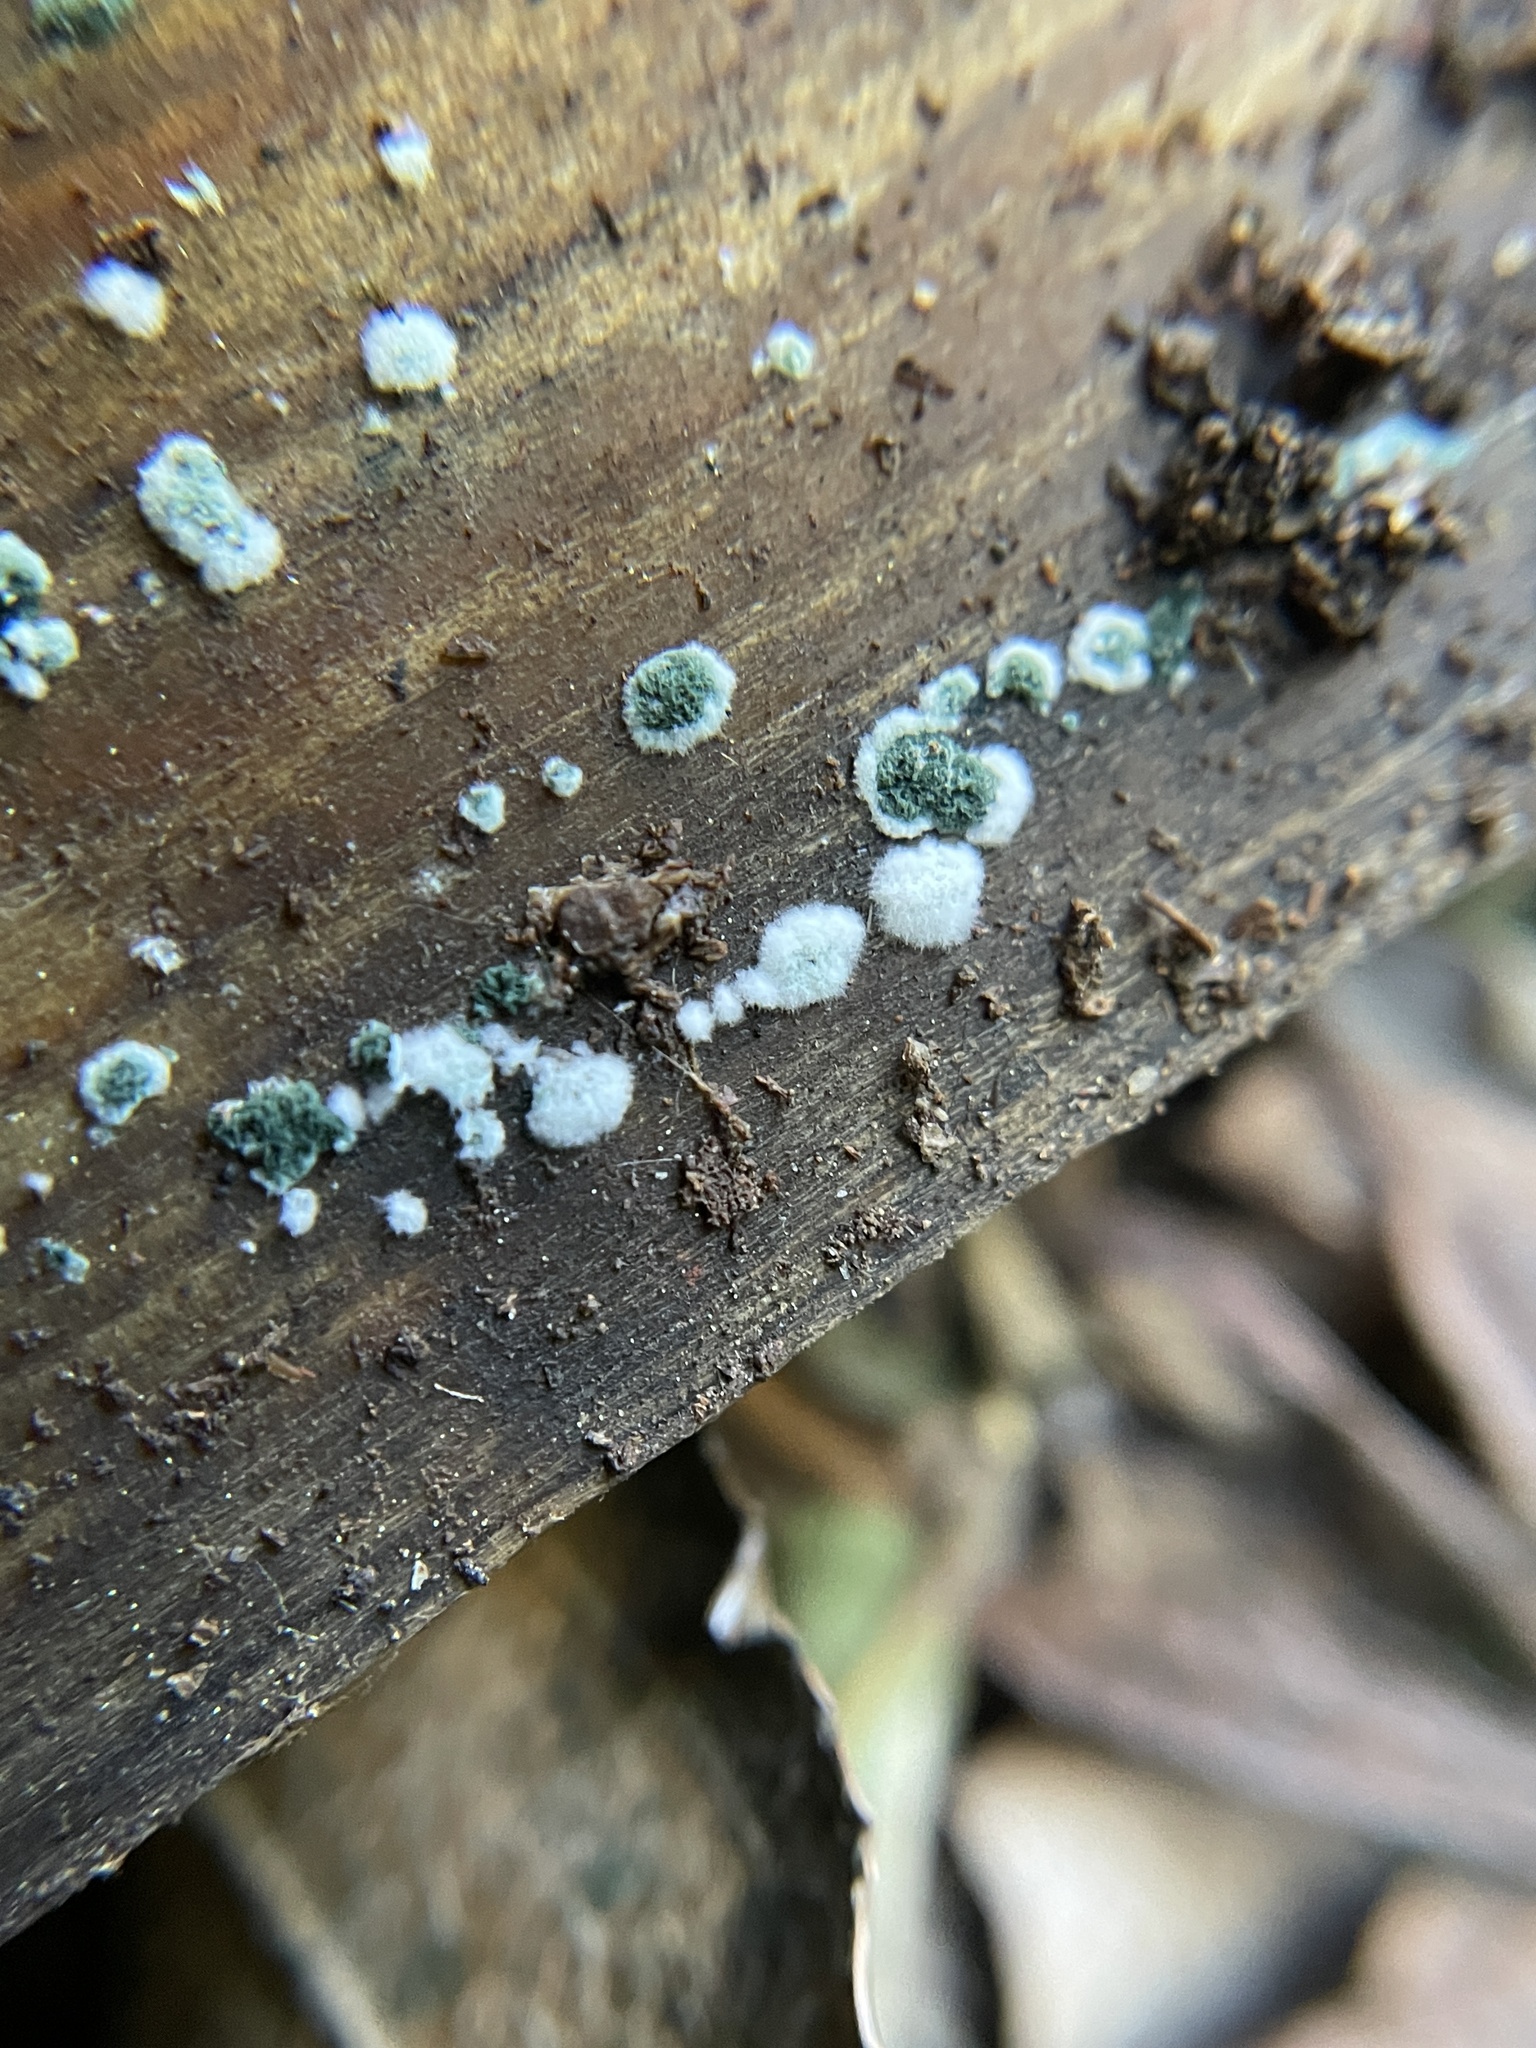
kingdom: Fungi
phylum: Ascomycota
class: Sordariomycetes
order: Hypocreales
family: Hypocreaceae
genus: Trichoderma
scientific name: Trichoderma viride
